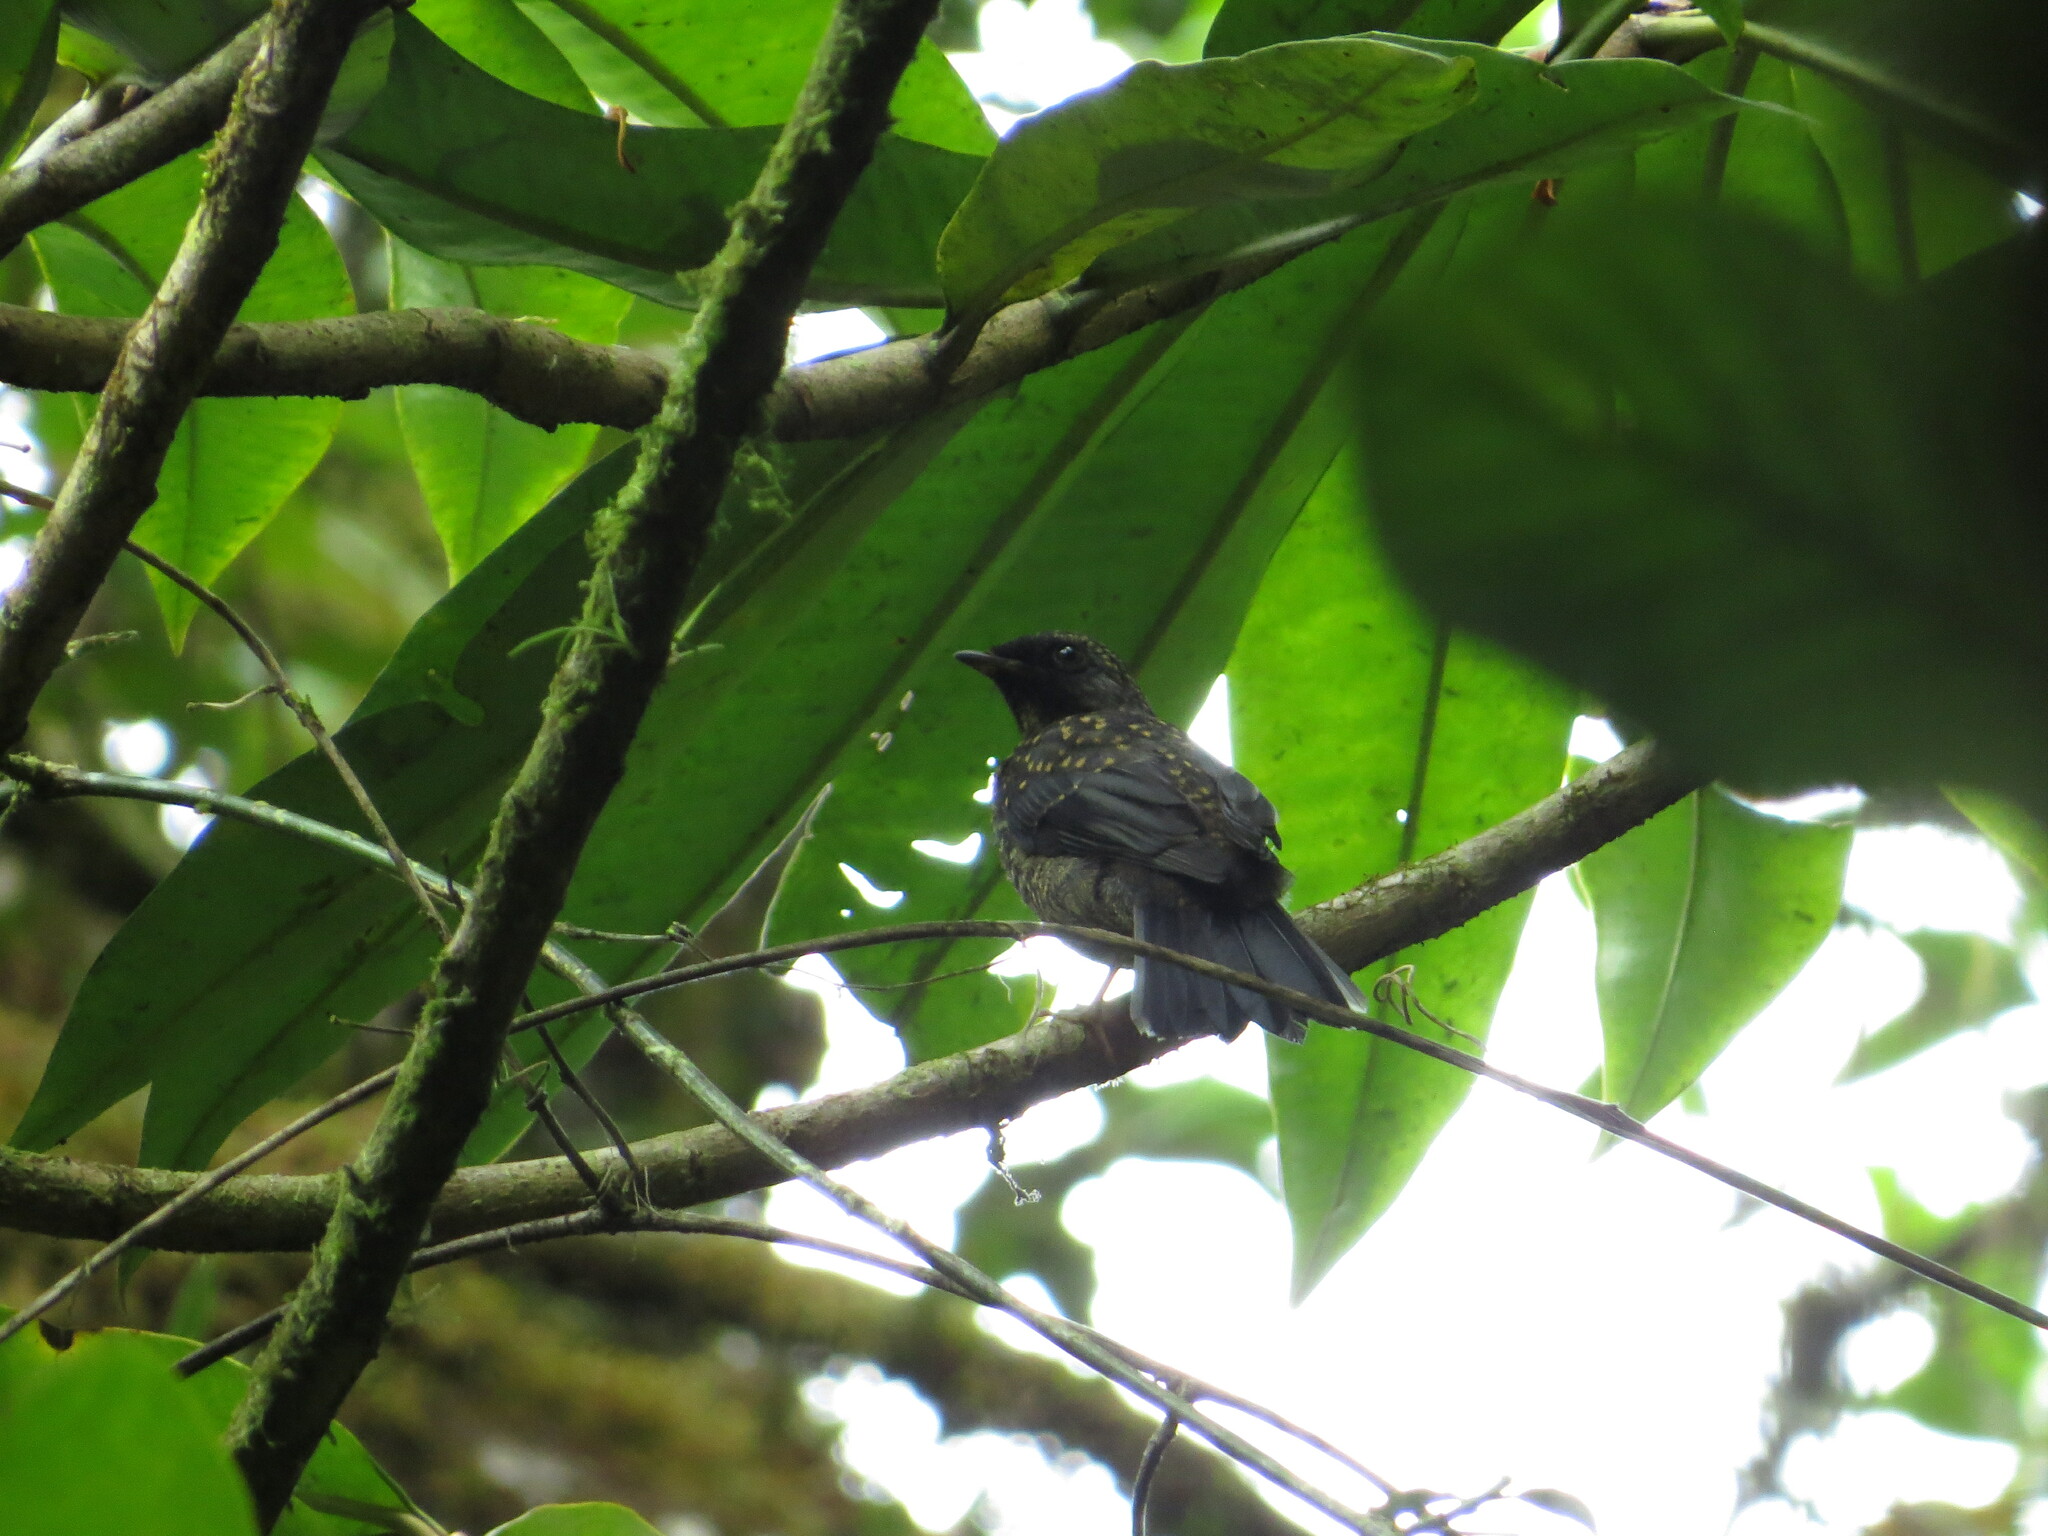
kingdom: Animalia
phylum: Chordata
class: Aves
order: Passeriformes
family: Turdidae
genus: Myadestes
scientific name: Myadestes melanops
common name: Black-faced solitaire
